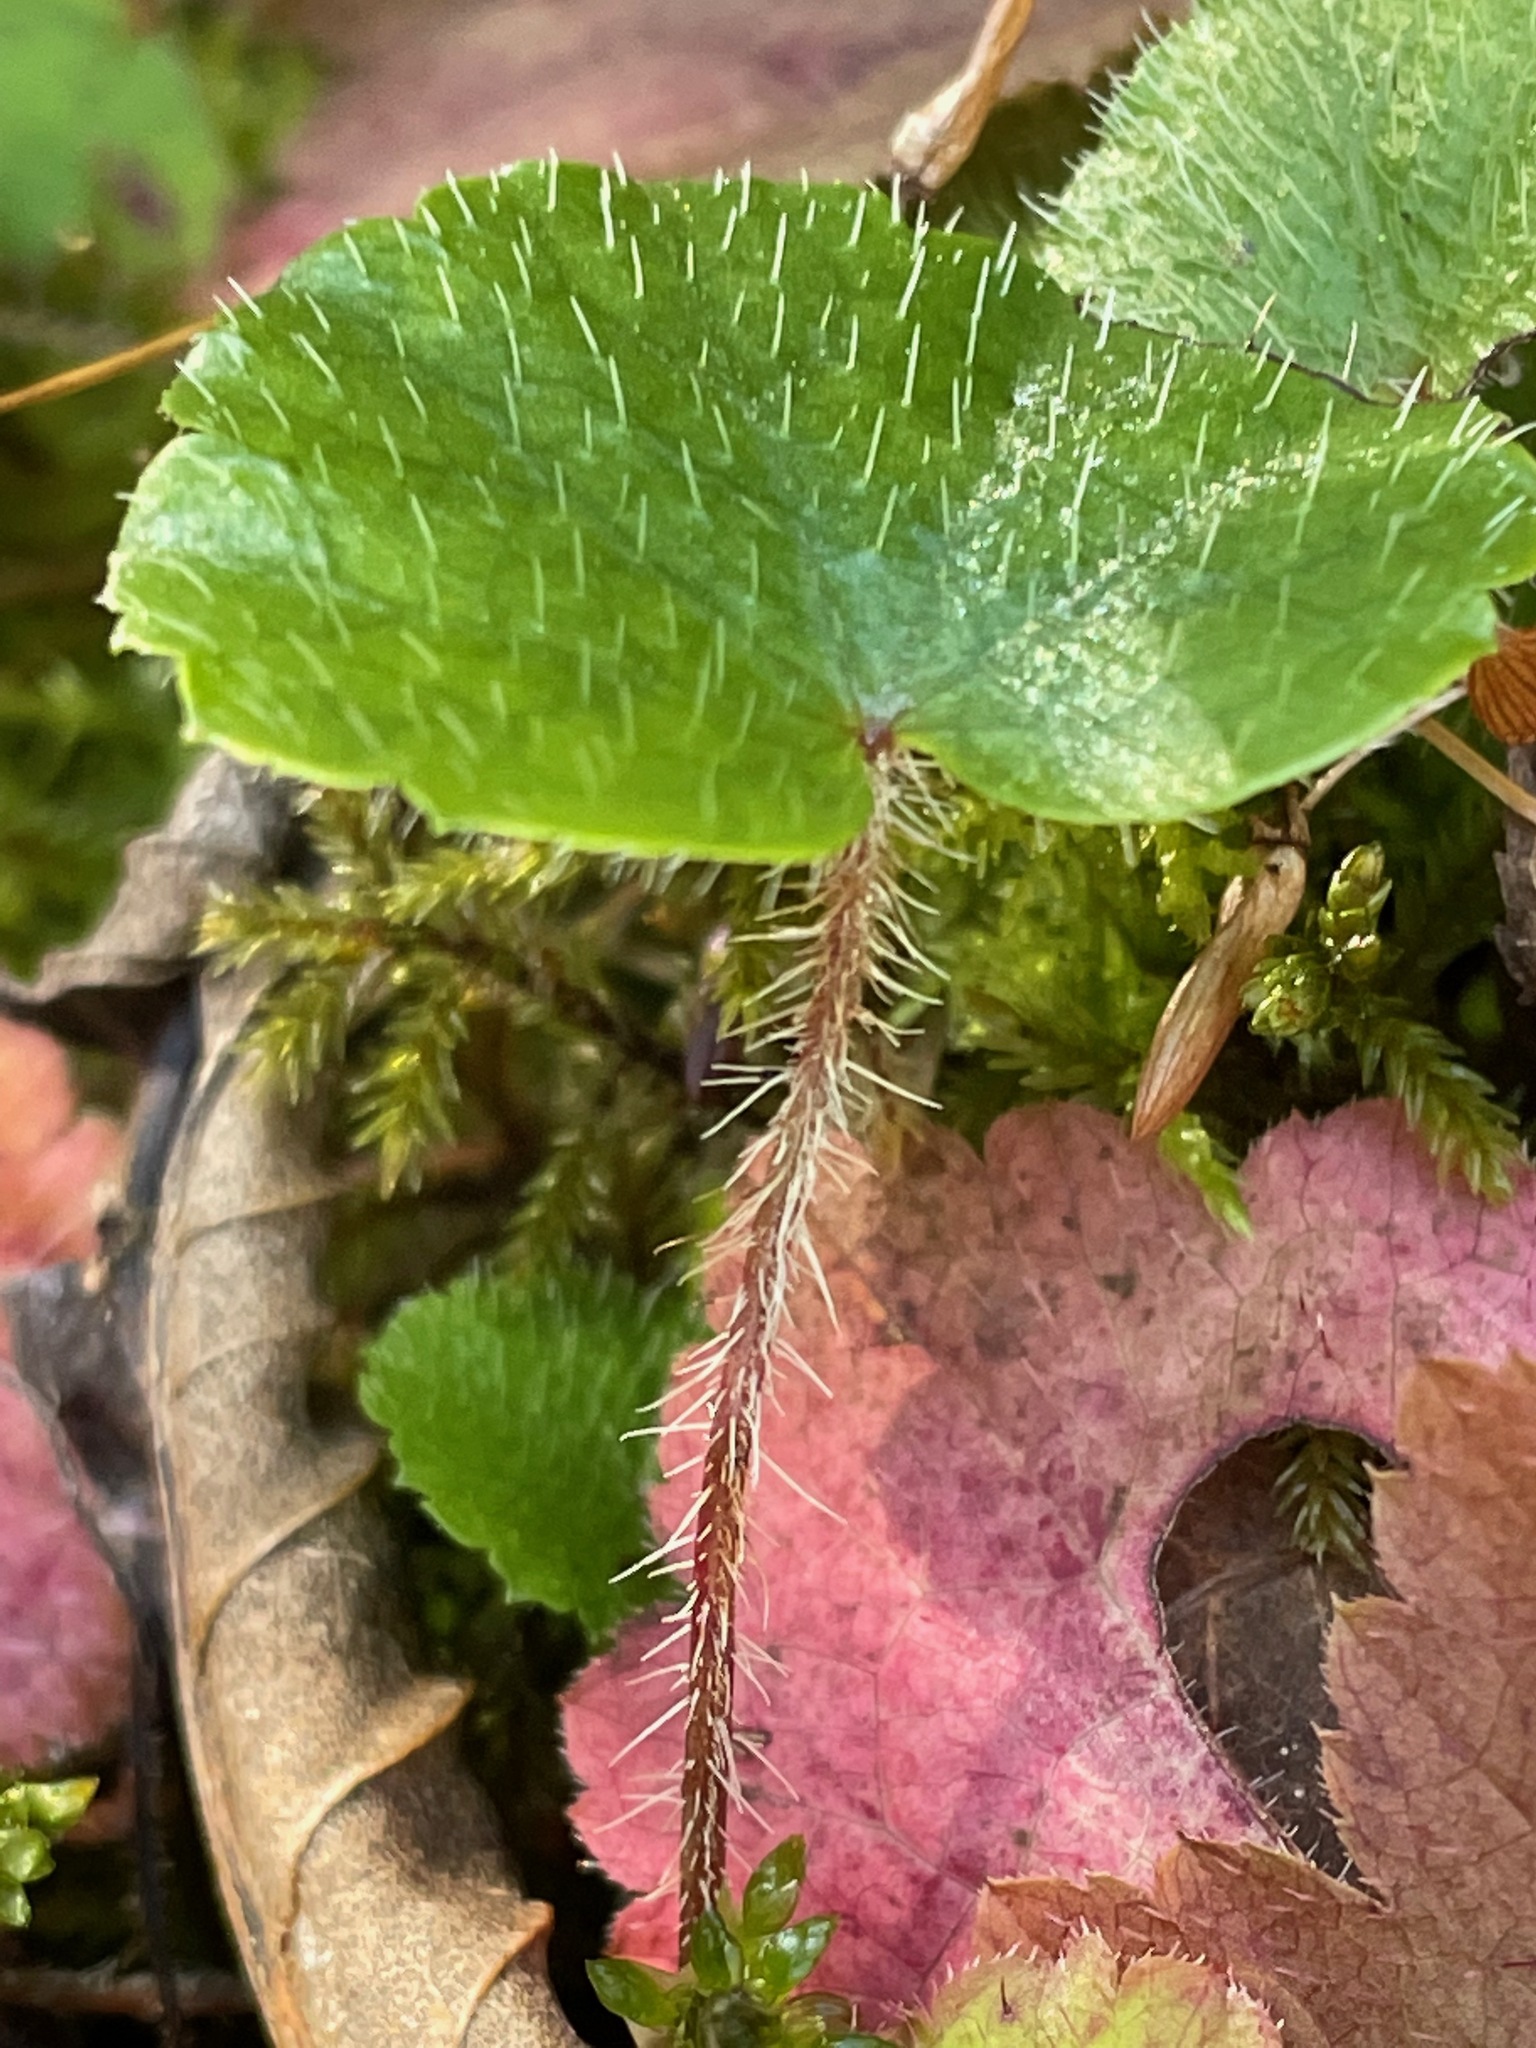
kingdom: Plantae
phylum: Tracheophyta
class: Magnoliopsida
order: Saxifragales
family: Saxifragaceae
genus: Mitella
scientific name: Mitella nuda
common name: Bare-stemmed bishop's-cap
